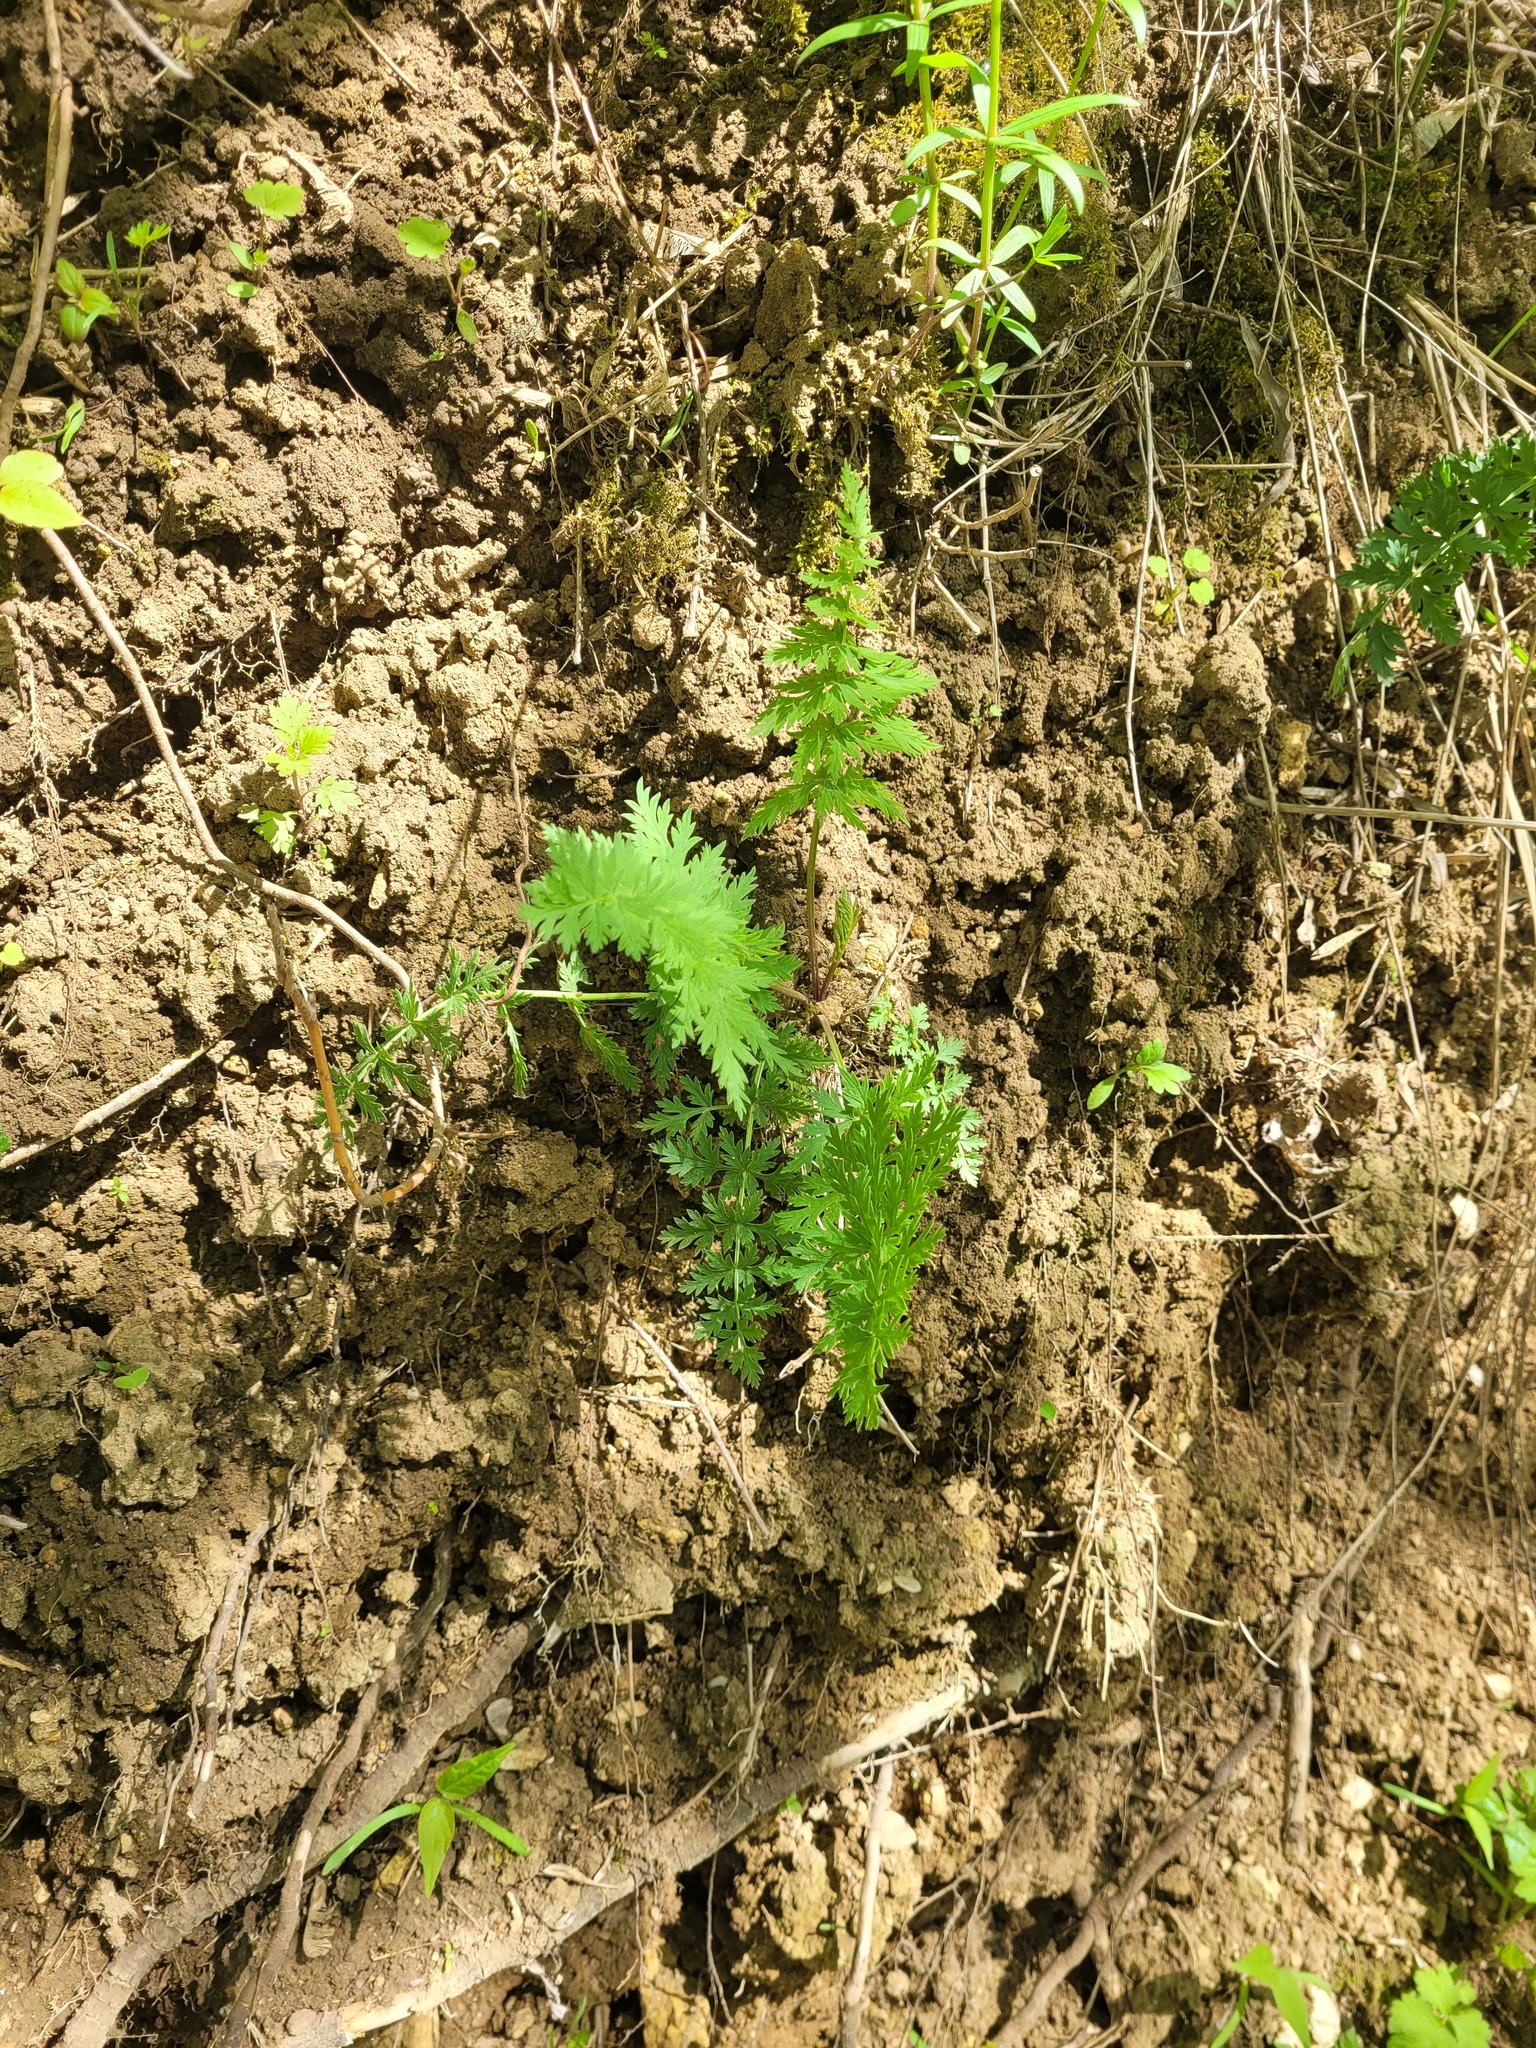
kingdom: Plantae
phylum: Tracheophyta
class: Magnoliopsida
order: Apiales
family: Apiaceae
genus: Seseli
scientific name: Seseli libanotis
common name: Mooncarrot
